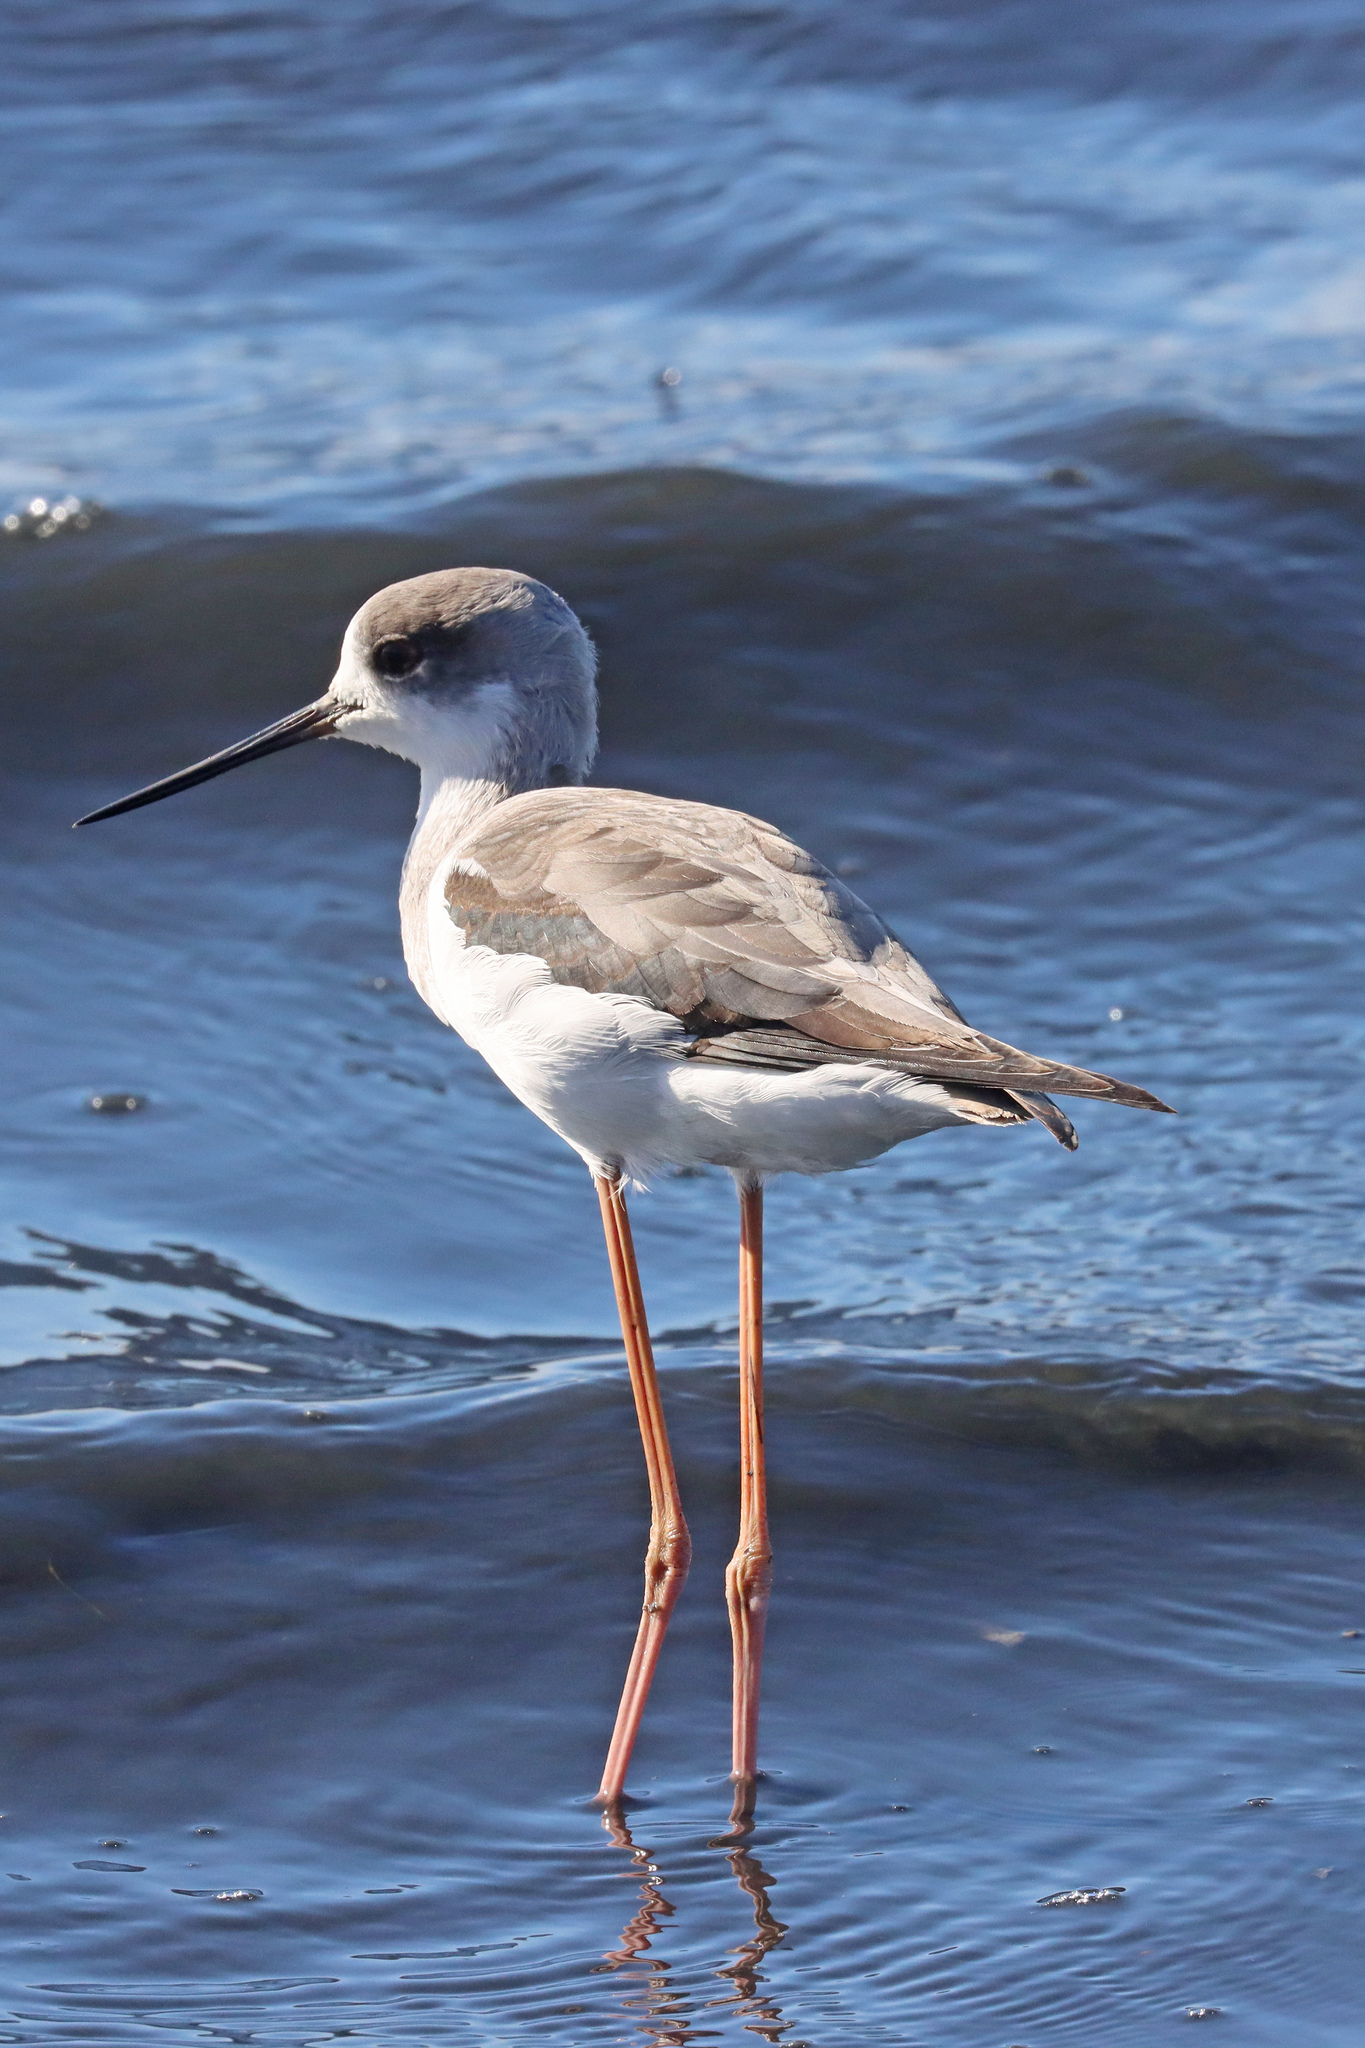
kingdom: Animalia
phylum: Chordata
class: Aves
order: Charadriiformes
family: Recurvirostridae
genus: Himantopus
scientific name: Himantopus himantopus
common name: Black-winged stilt
